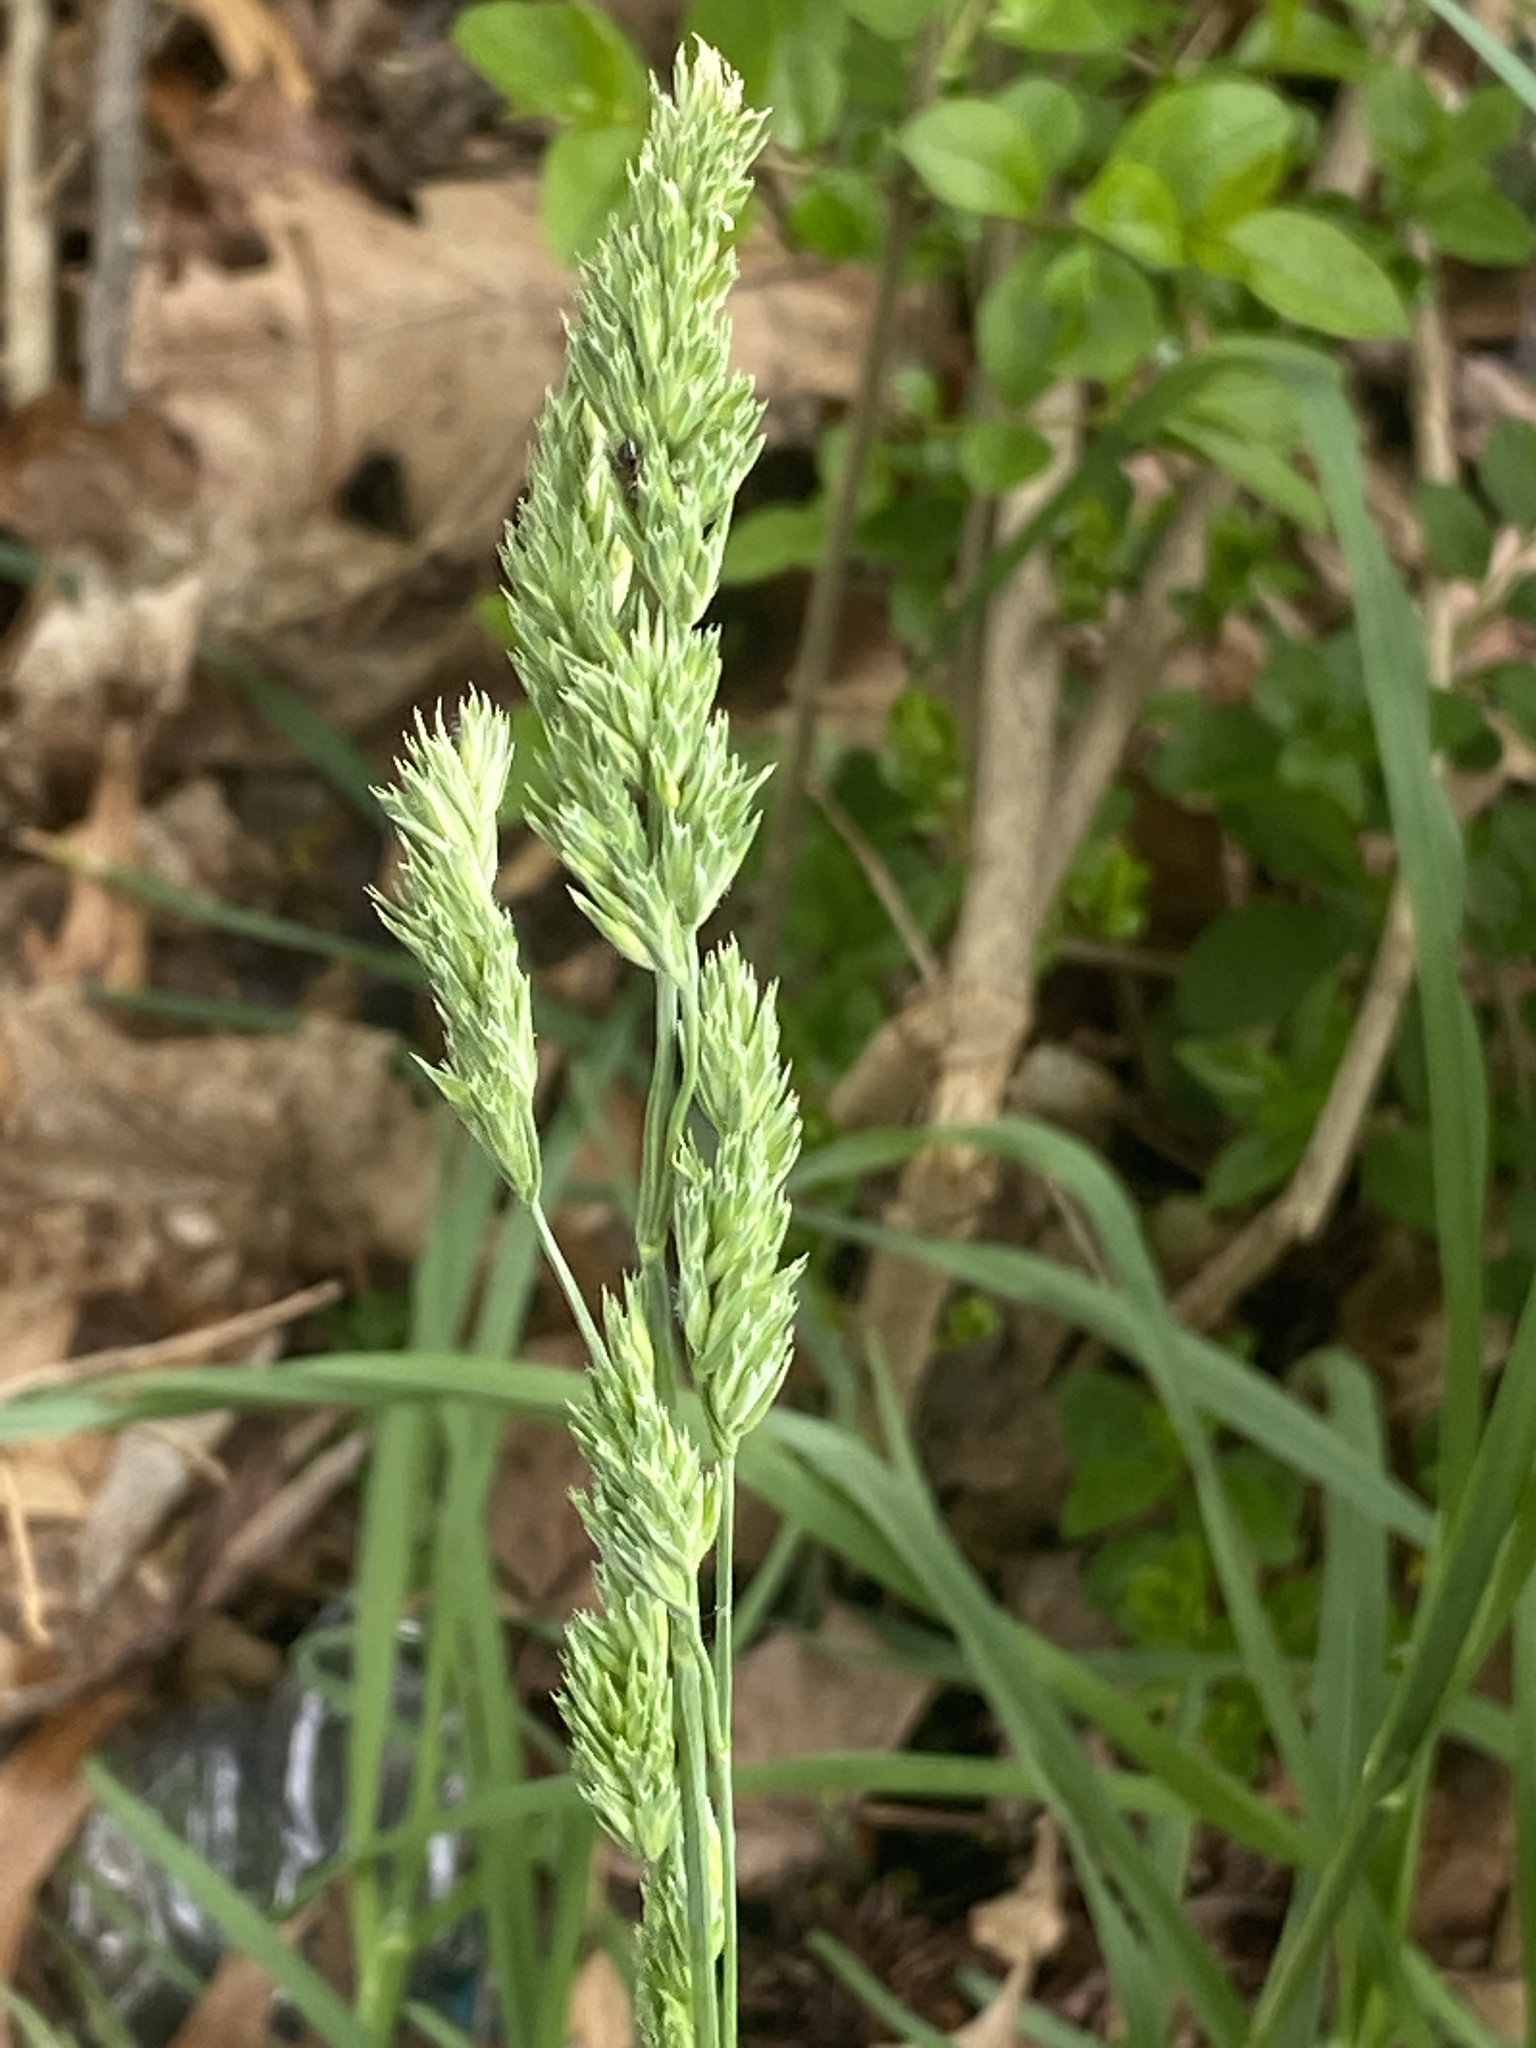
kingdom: Plantae
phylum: Tracheophyta
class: Liliopsida
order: Poales
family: Poaceae
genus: Dactylis
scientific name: Dactylis glomerata
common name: Orchardgrass
